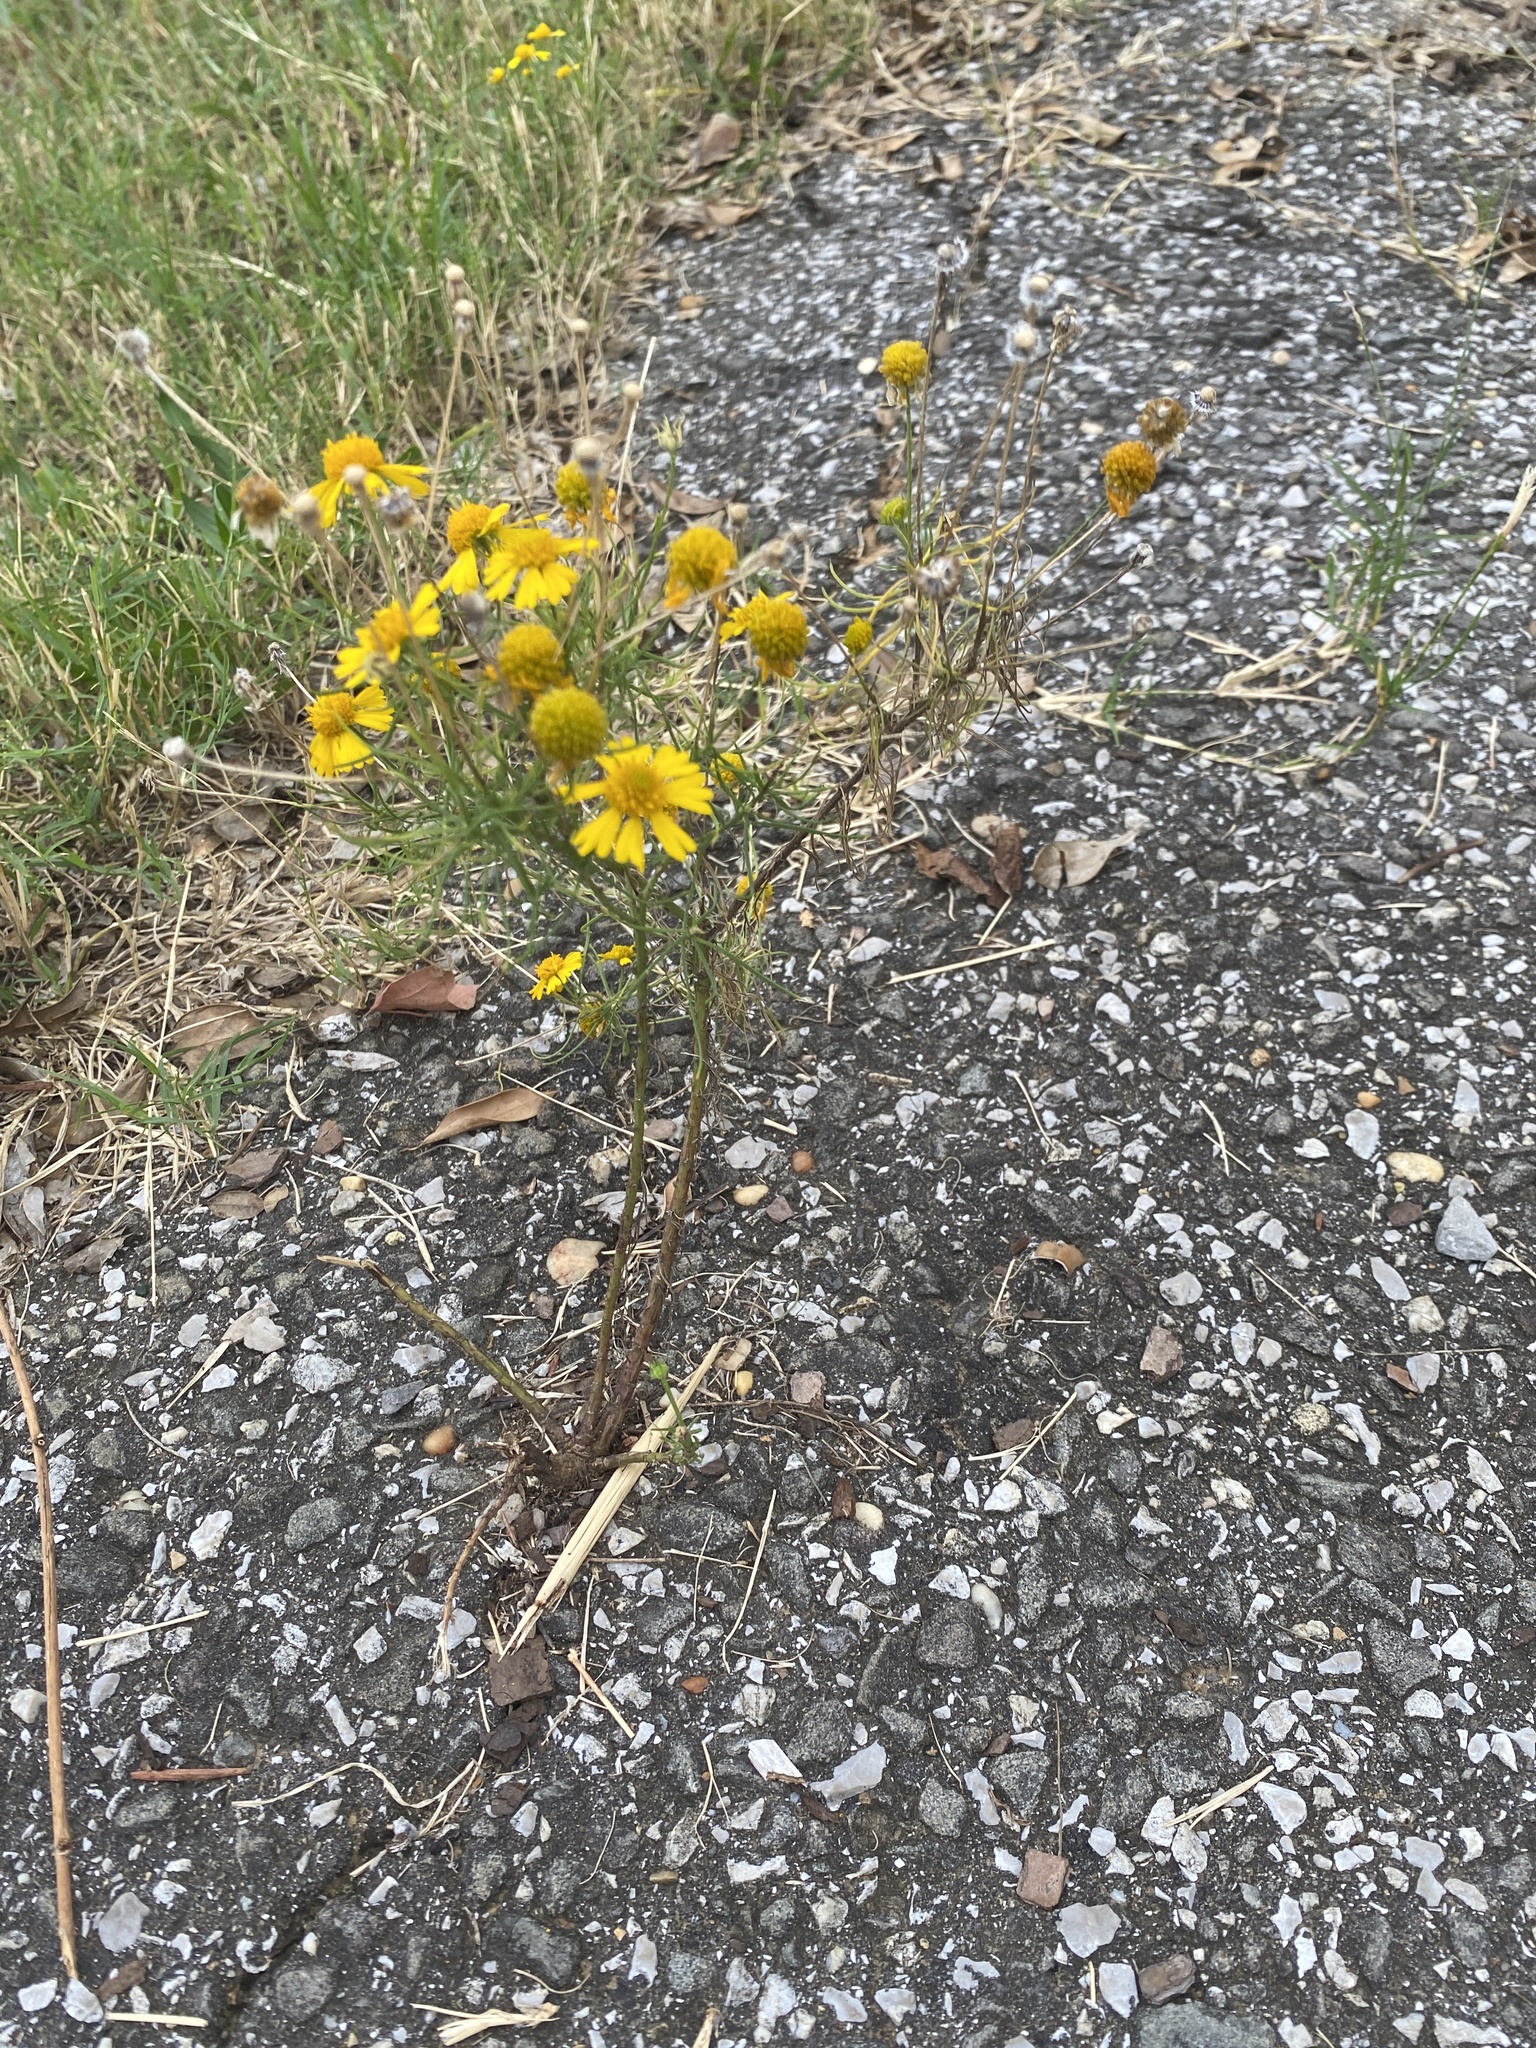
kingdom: Plantae
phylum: Tracheophyta
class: Magnoliopsida
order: Asterales
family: Asteraceae
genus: Helenium
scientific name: Helenium amarum
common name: Bitter sneezeweed
